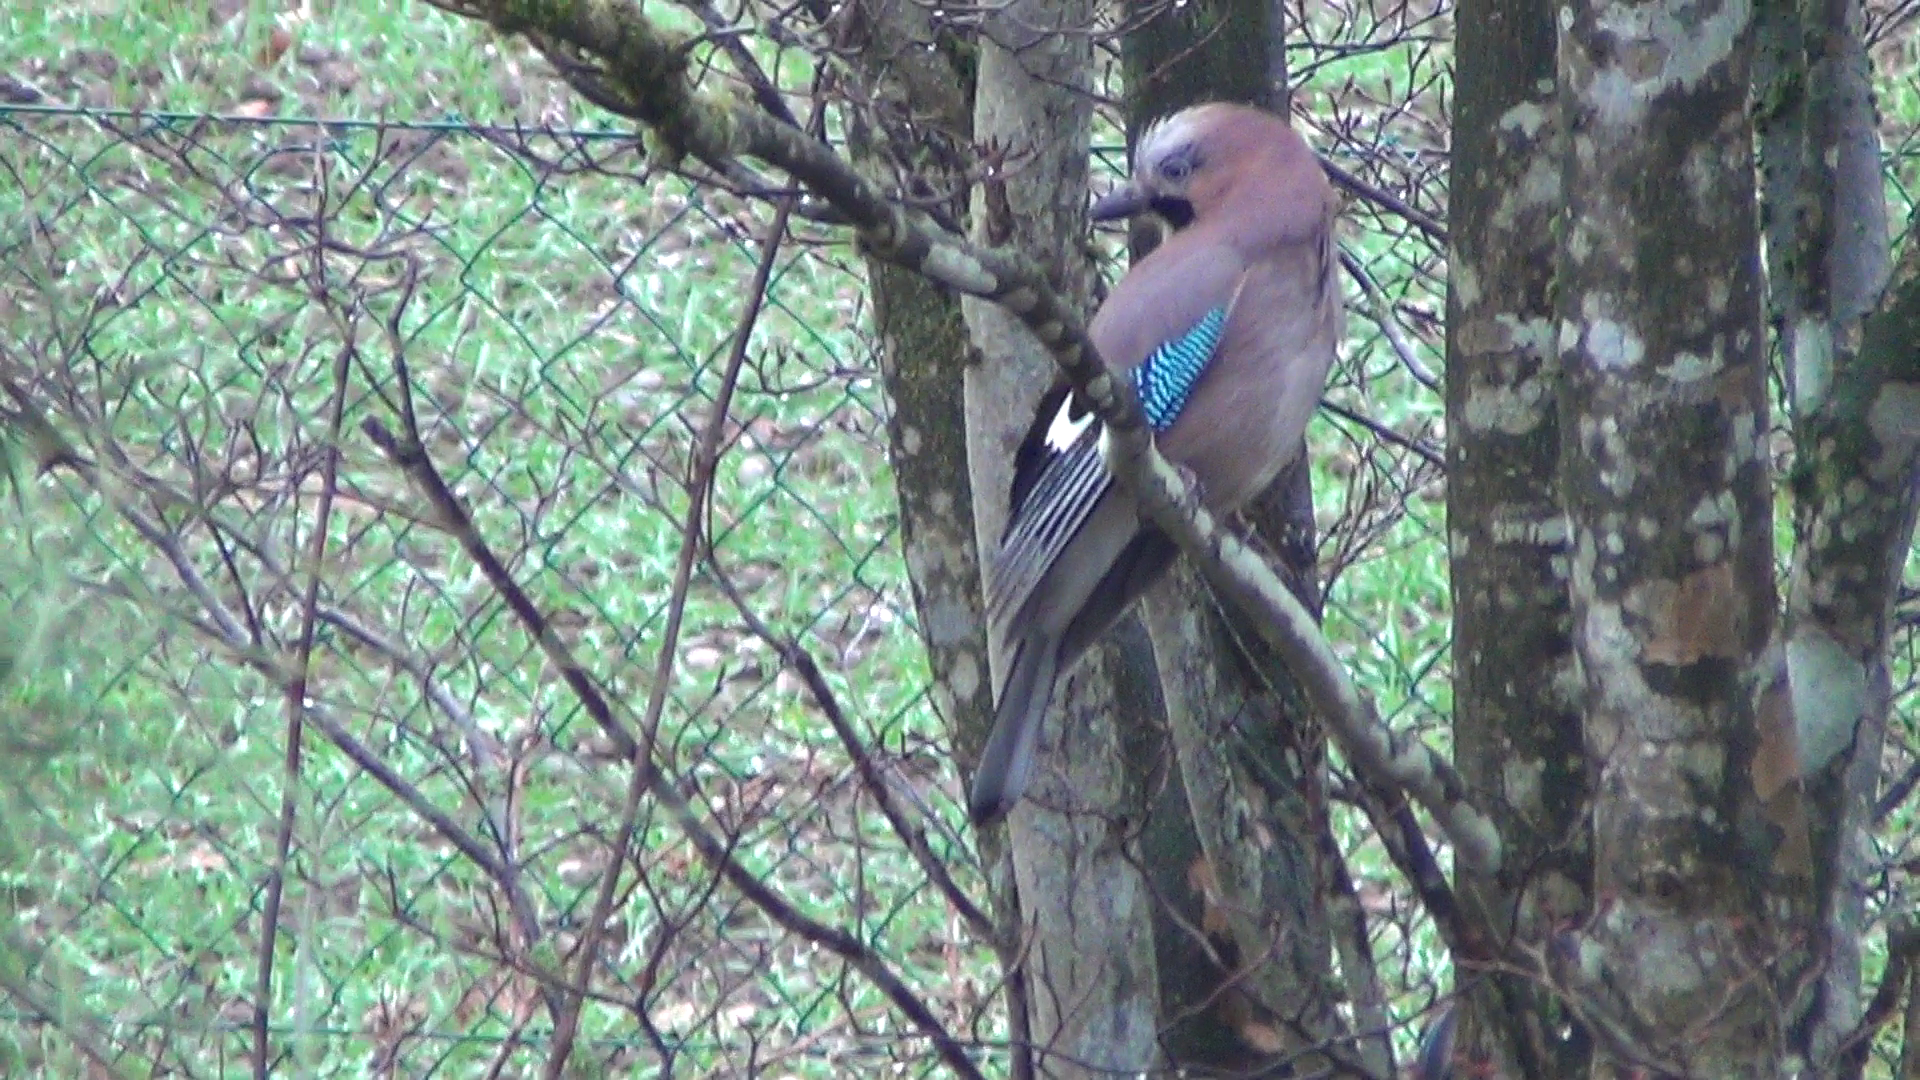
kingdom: Animalia
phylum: Chordata
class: Aves
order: Passeriformes
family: Corvidae
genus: Garrulus
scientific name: Garrulus glandarius
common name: Eurasian jay
